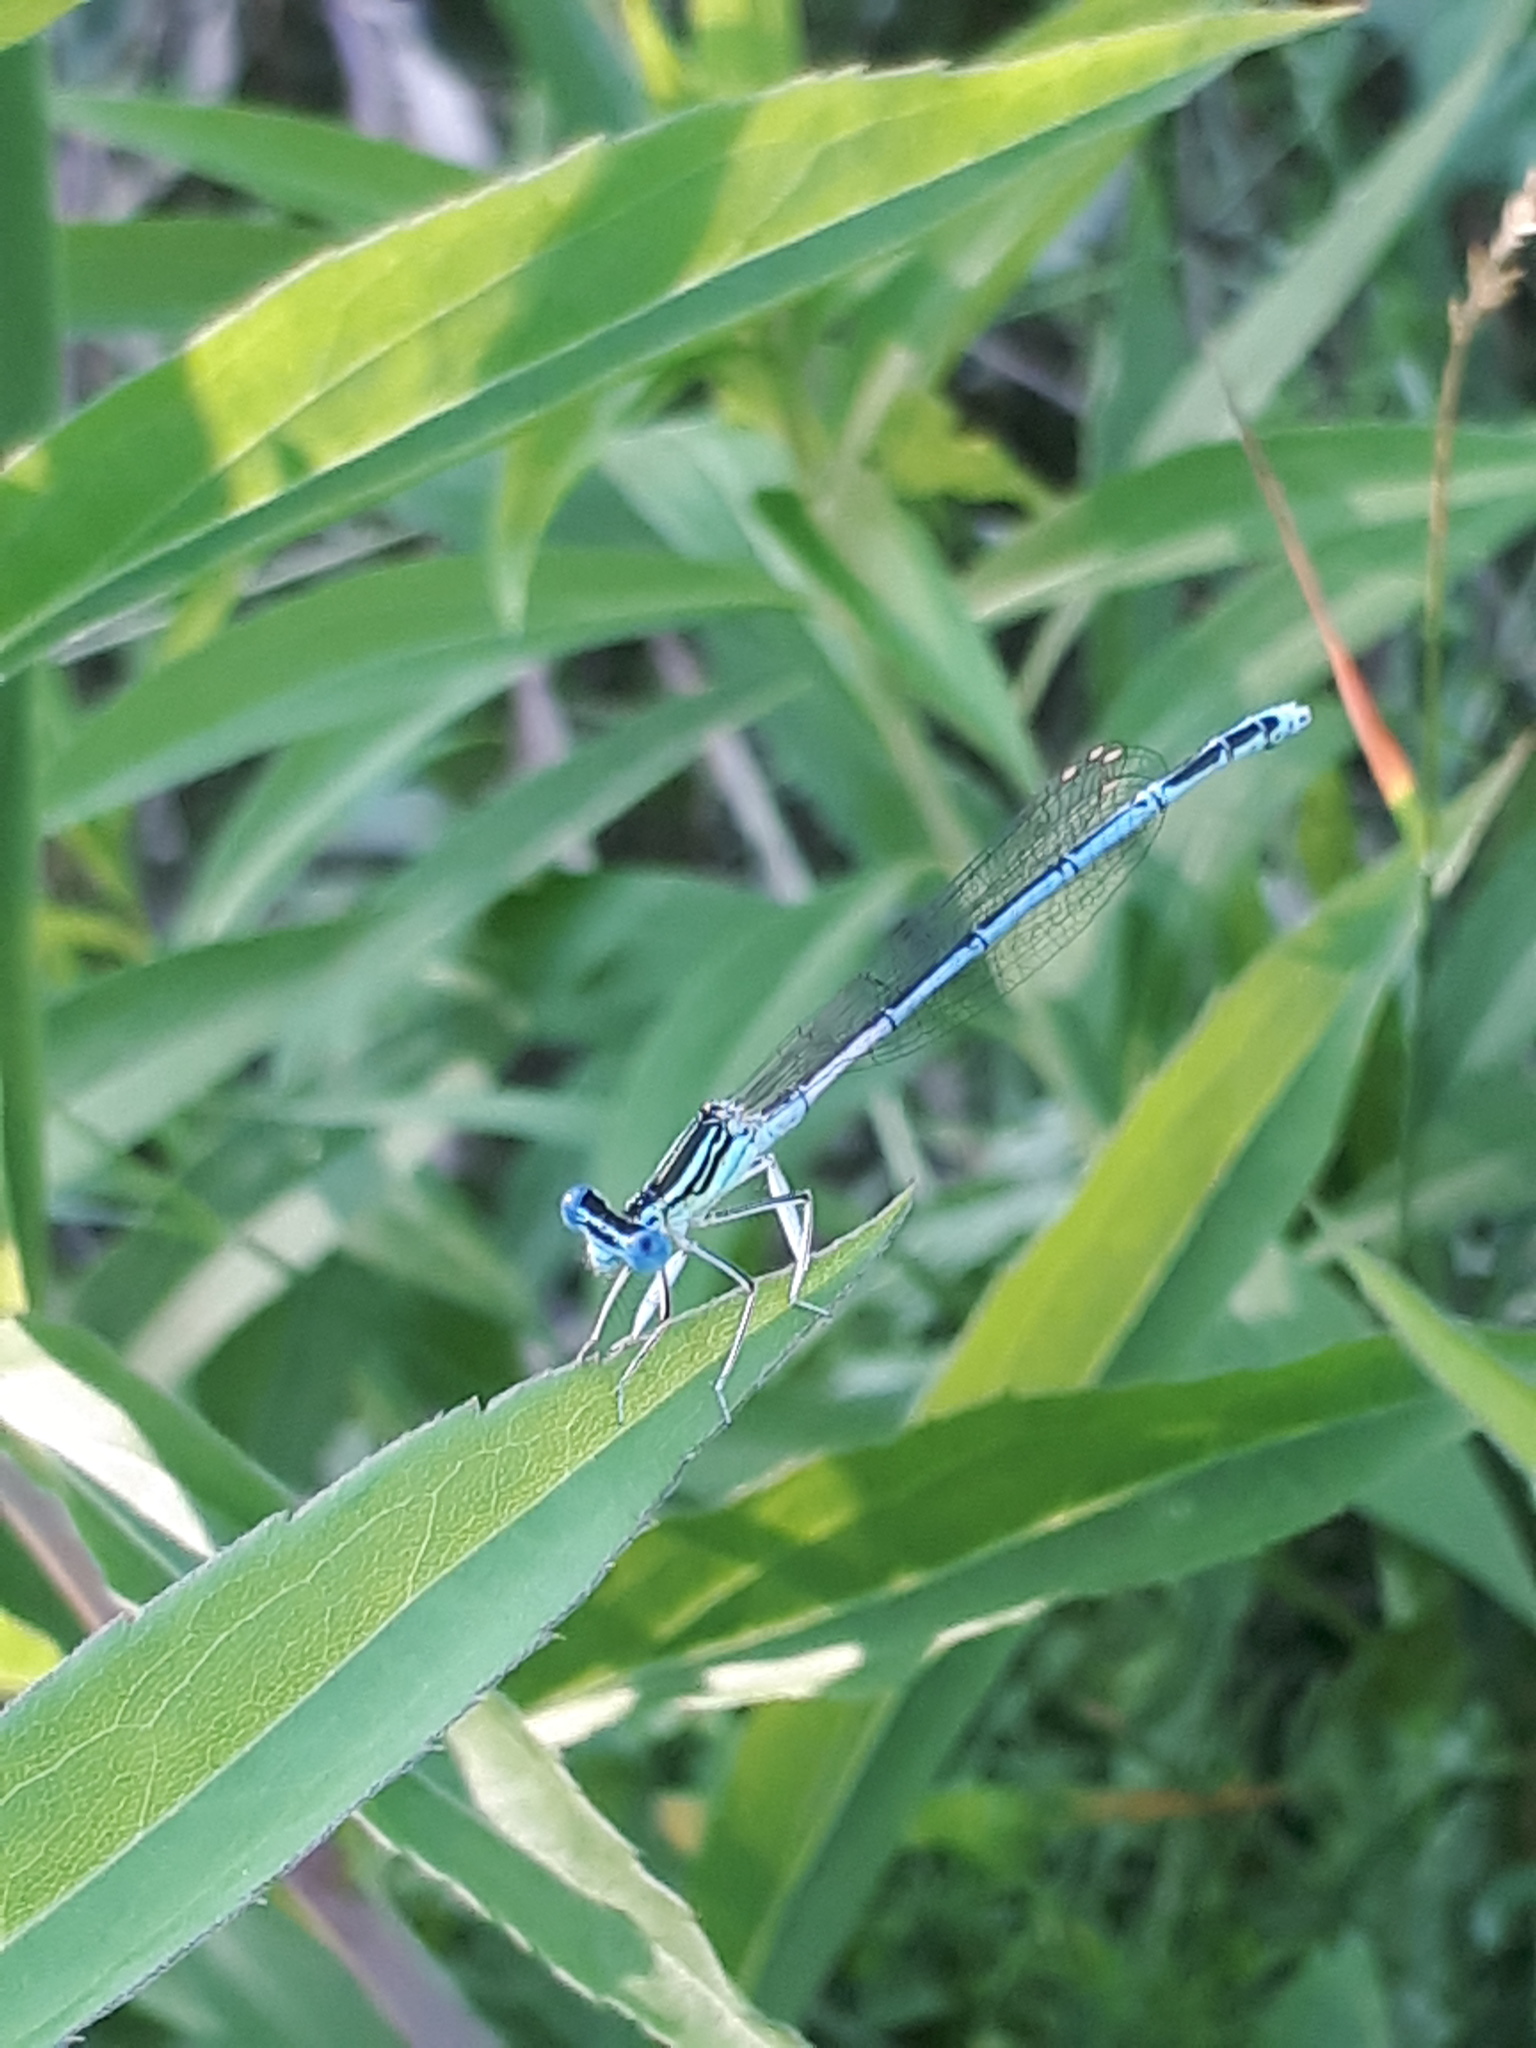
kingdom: Animalia
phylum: Arthropoda
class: Insecta
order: Odonata
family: Platycnemididae
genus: Platycnemis
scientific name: Platycnemis pennipes
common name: White-legged damselfly
